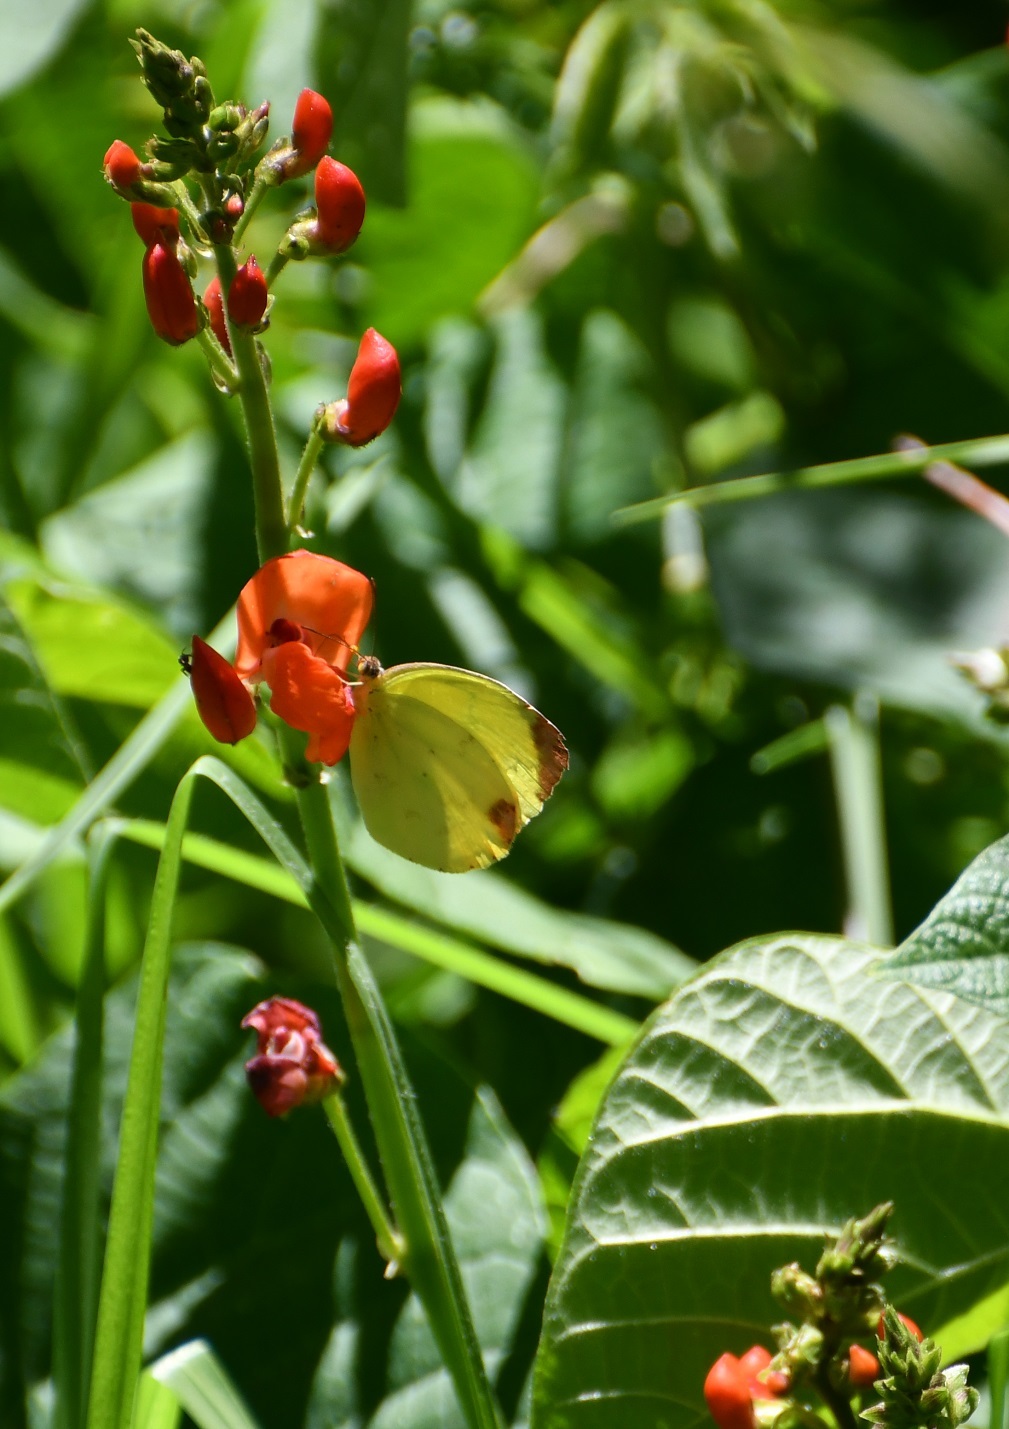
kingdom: Animalia
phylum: Arthropoda
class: Insecta
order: Lepidoptera
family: Pieridae
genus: Pyrisitia
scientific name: Pyrisitia westwoodi
